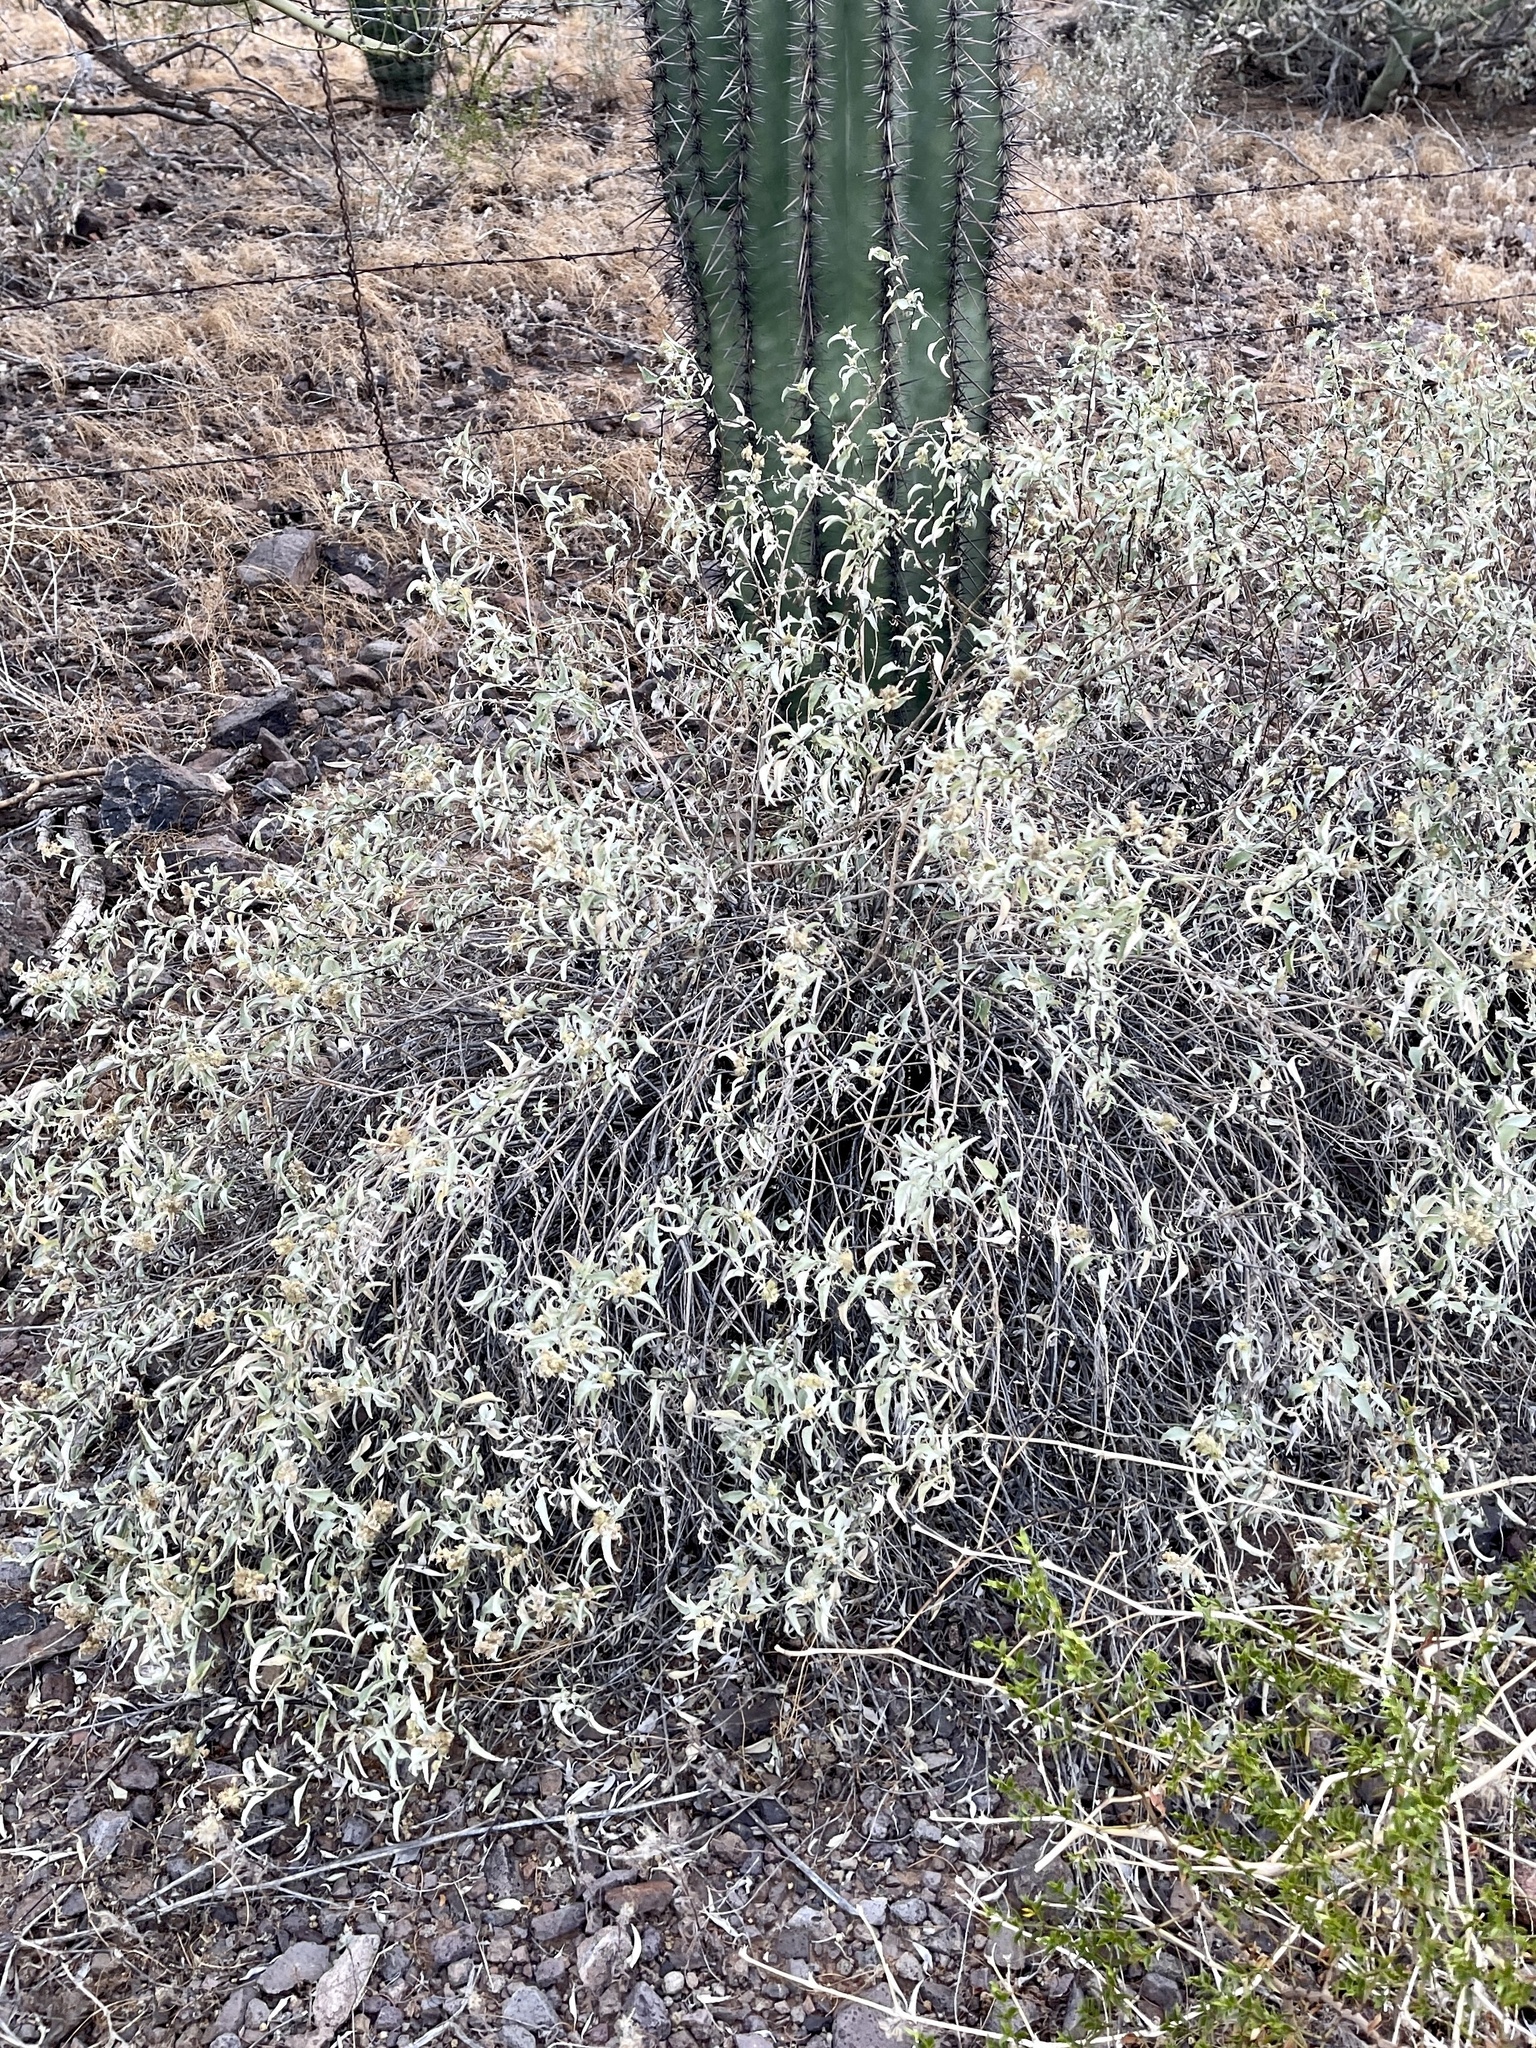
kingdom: Plantae
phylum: Tracheophyta
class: Magnoliopsida
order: Asterales
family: Asteraceae
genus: Ambrosia
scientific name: Ambrosia deltoidea
